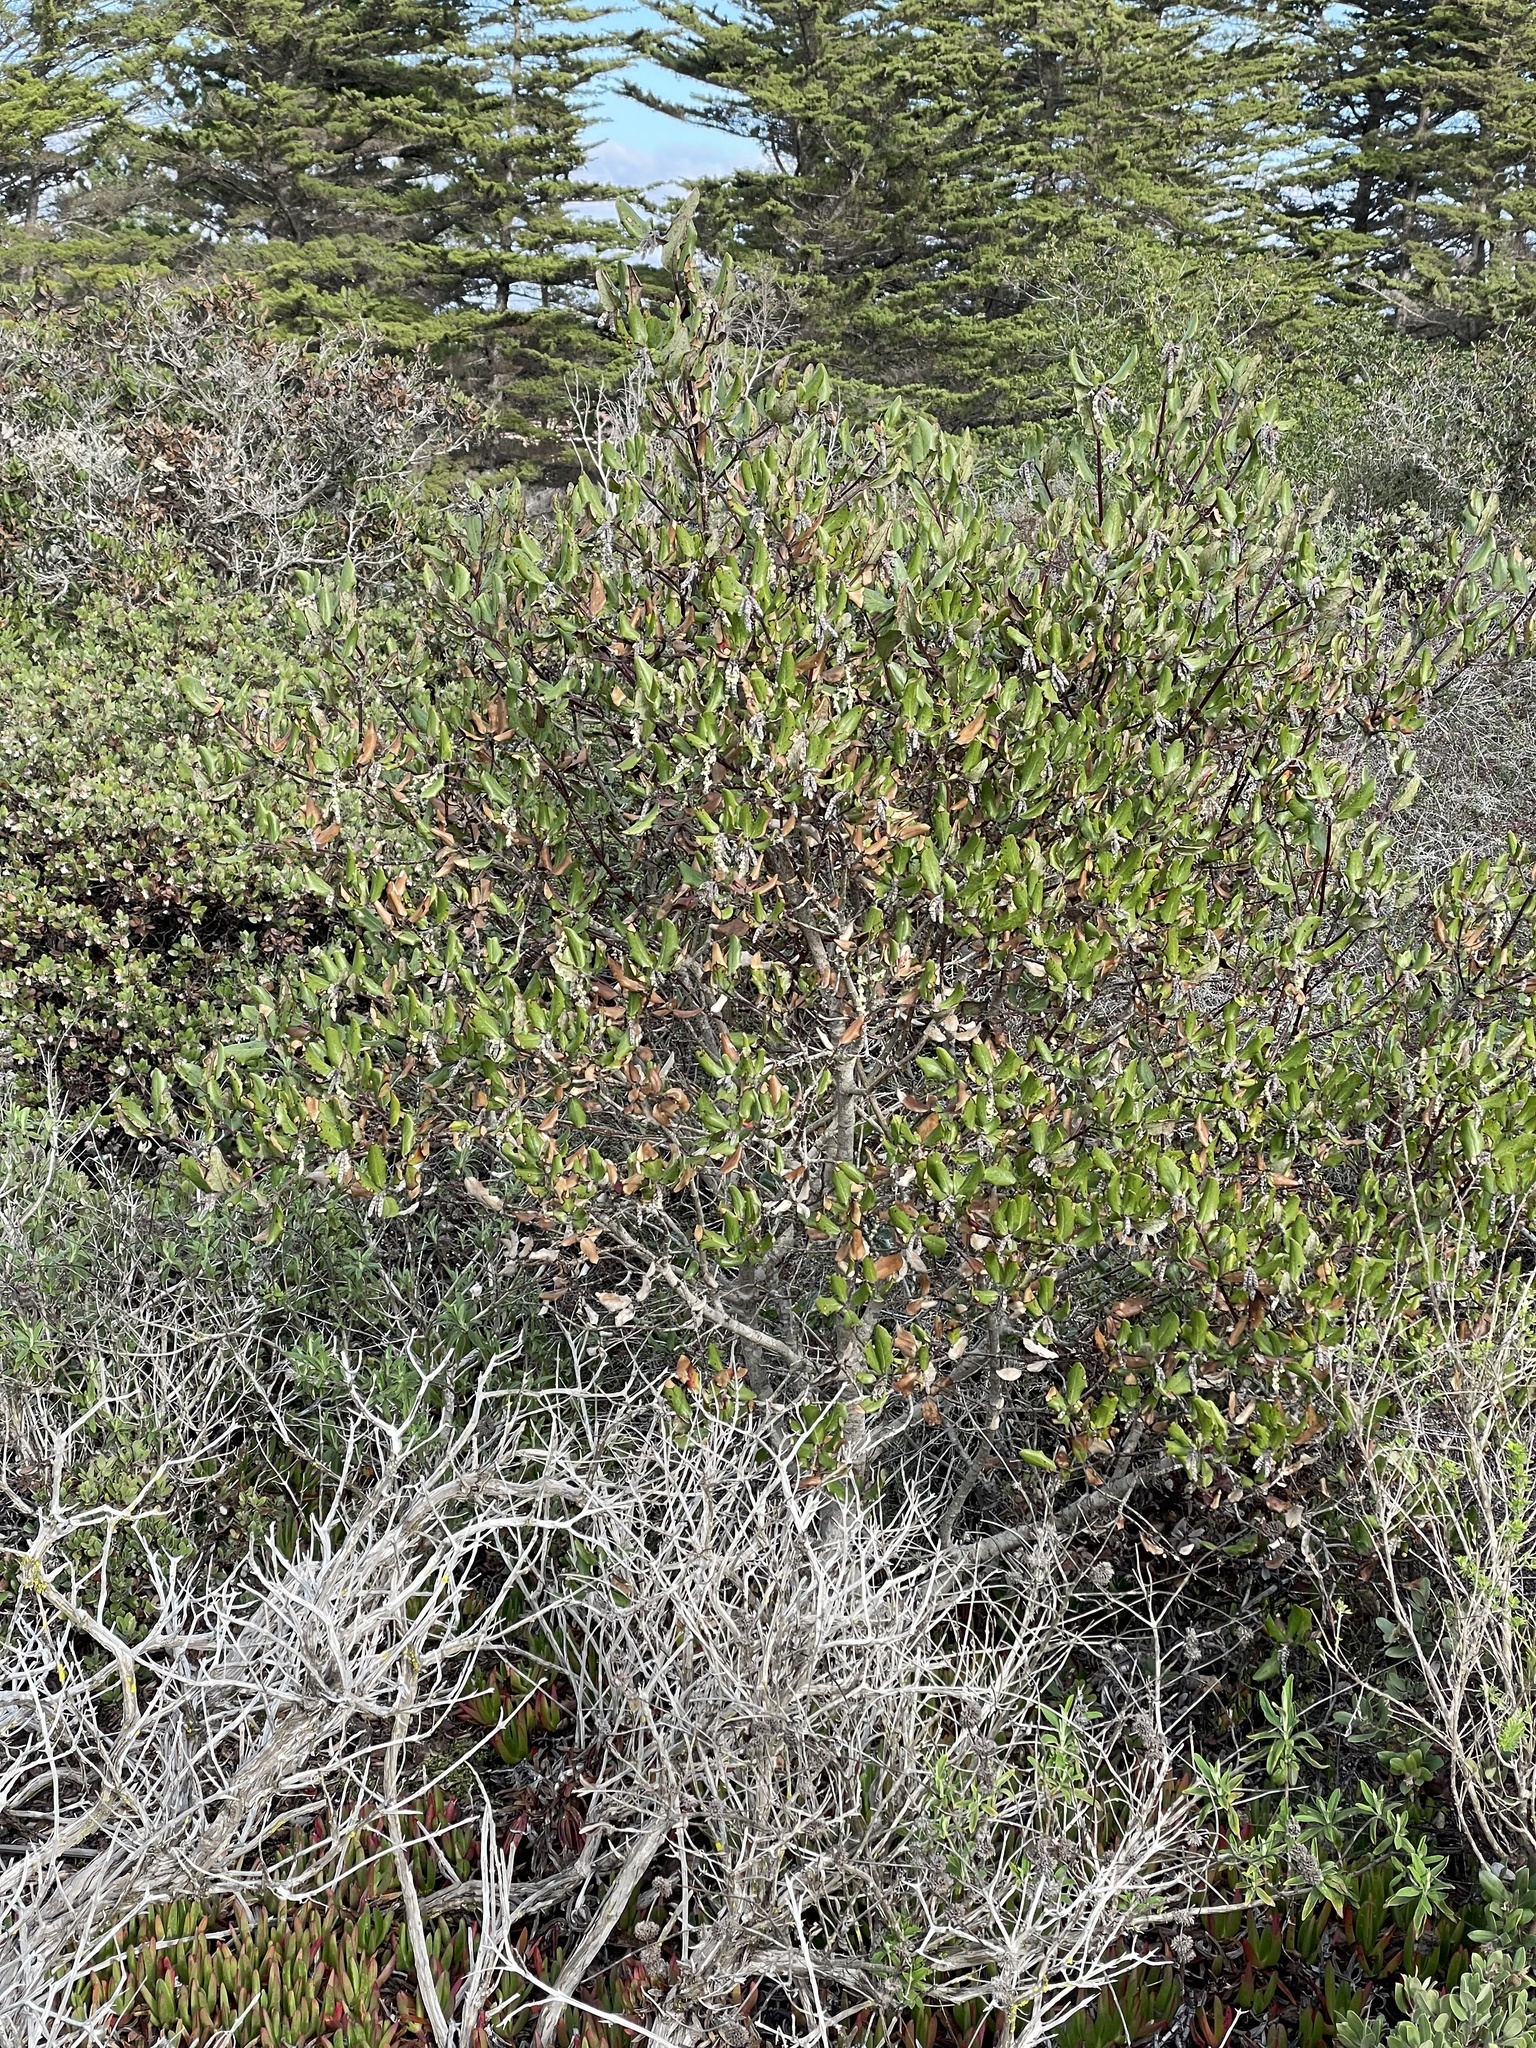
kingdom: Plantae
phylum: Tracheophyta
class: Magnoliopsida
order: Garryales
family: Garryaceae
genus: Garrya
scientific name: Garrya elliptica
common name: Silk-tassel
